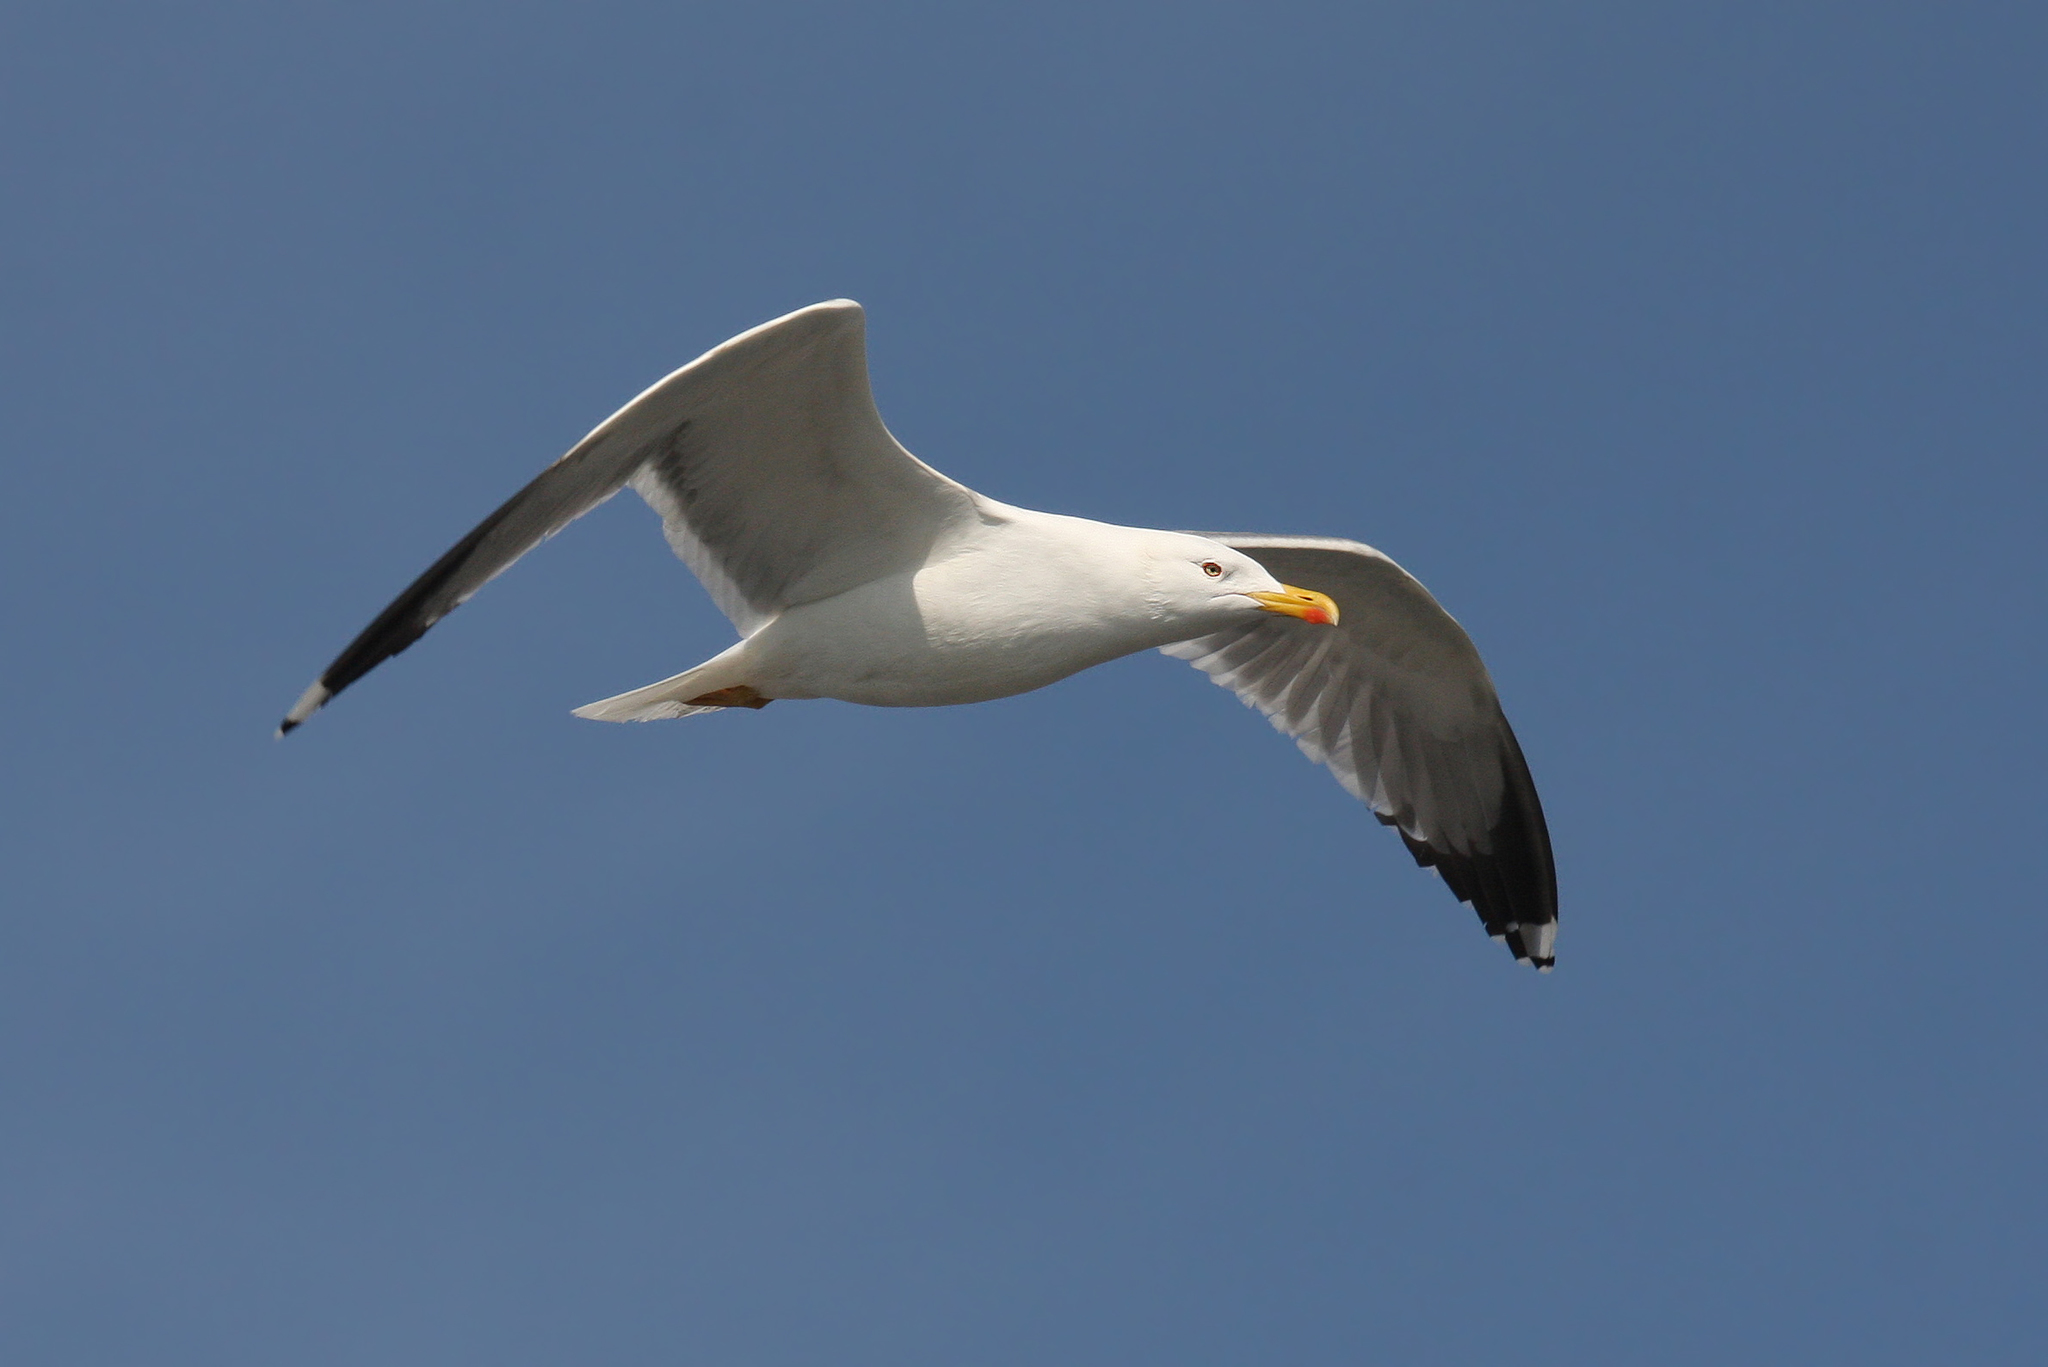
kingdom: Animalia
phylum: Chordata
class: Aves
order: Charadriiformes
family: Laridae
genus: Larus
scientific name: Larus michahellis
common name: Yellow-legged gull
